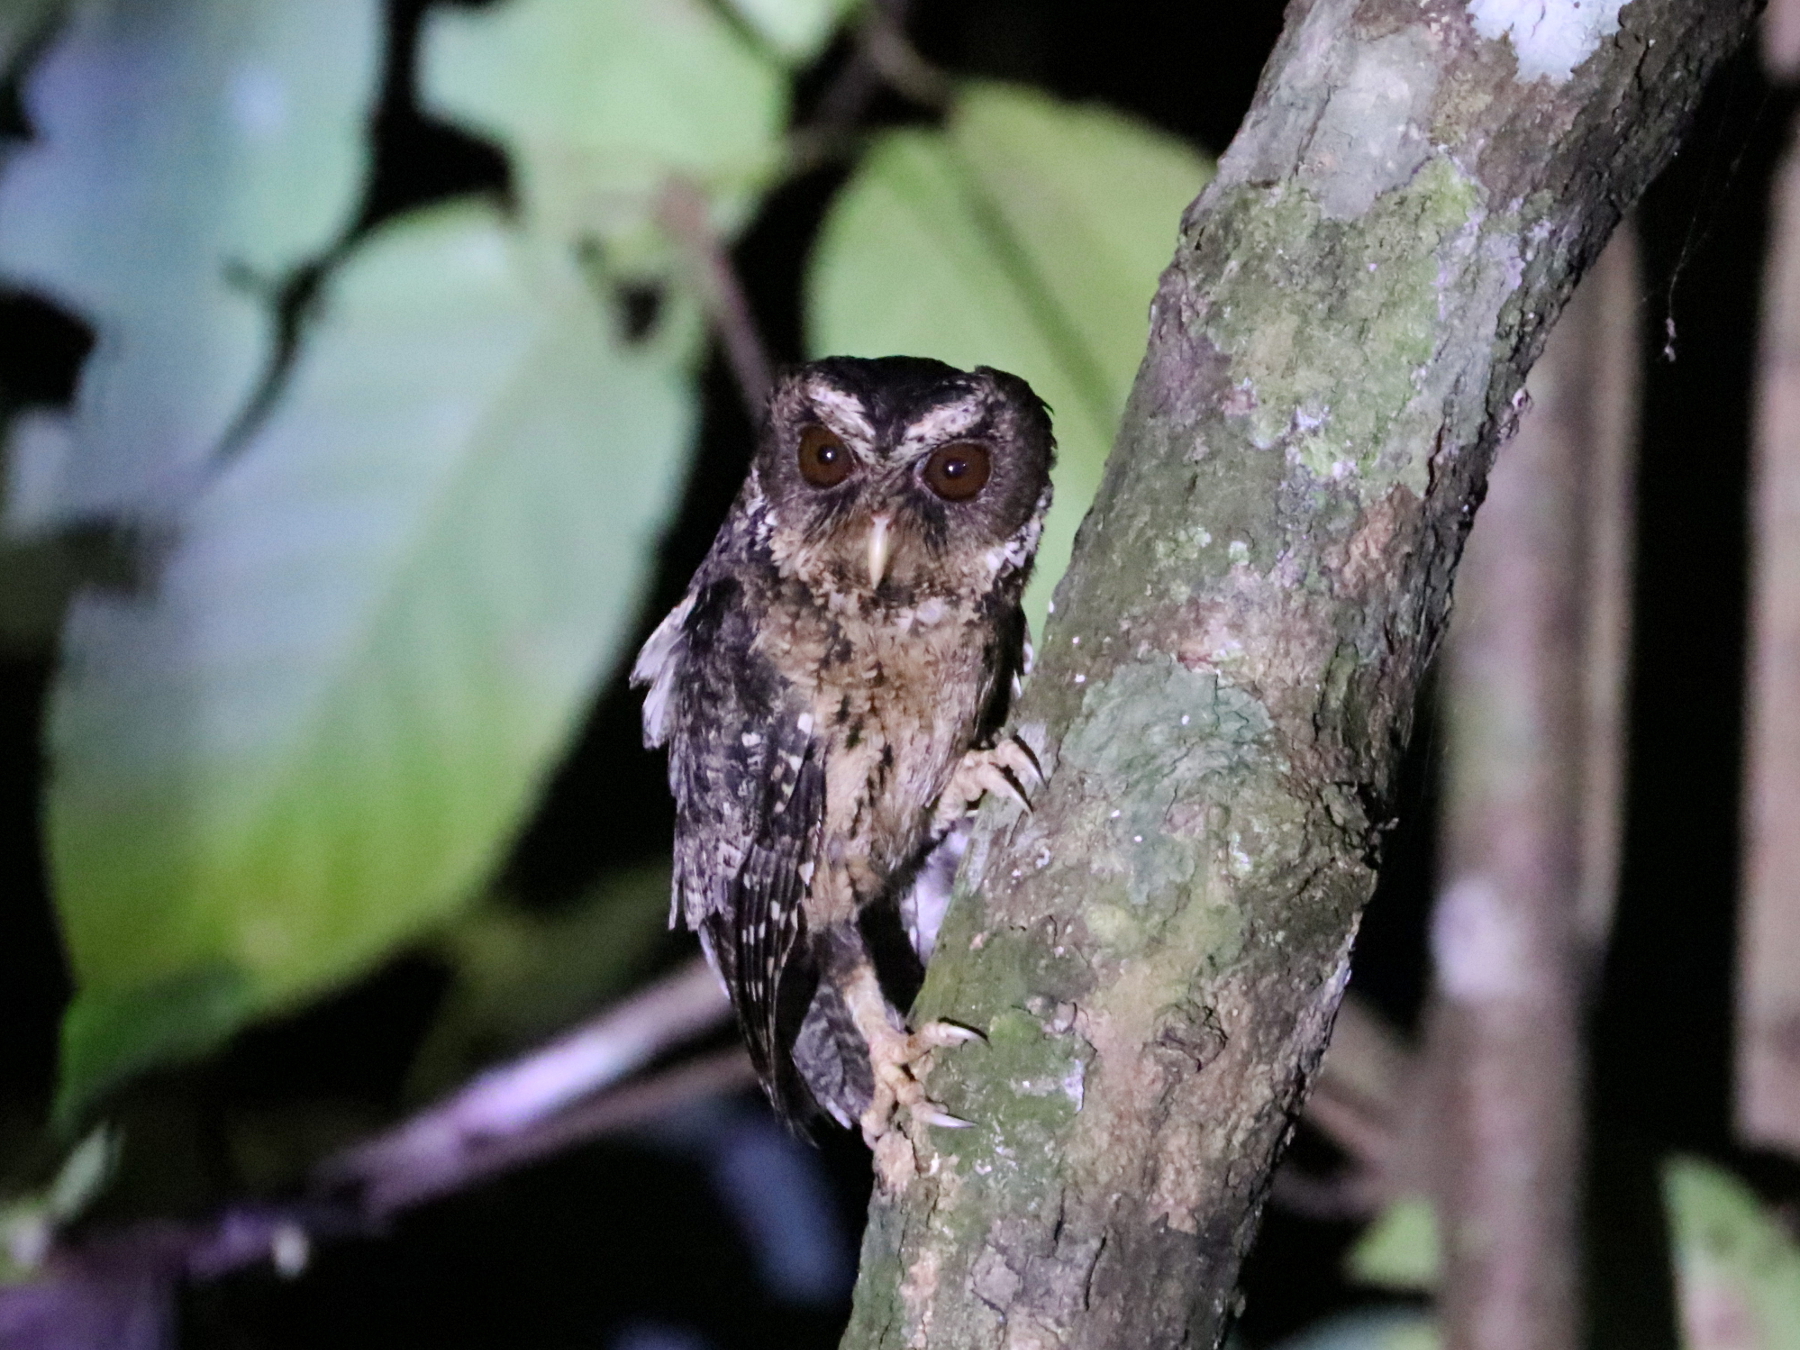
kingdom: Animalia
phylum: Chordata
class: Aves
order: Strigiformes
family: Strigidae
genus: Otus
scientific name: Otus fuliginosus
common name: Palawan scops owl
